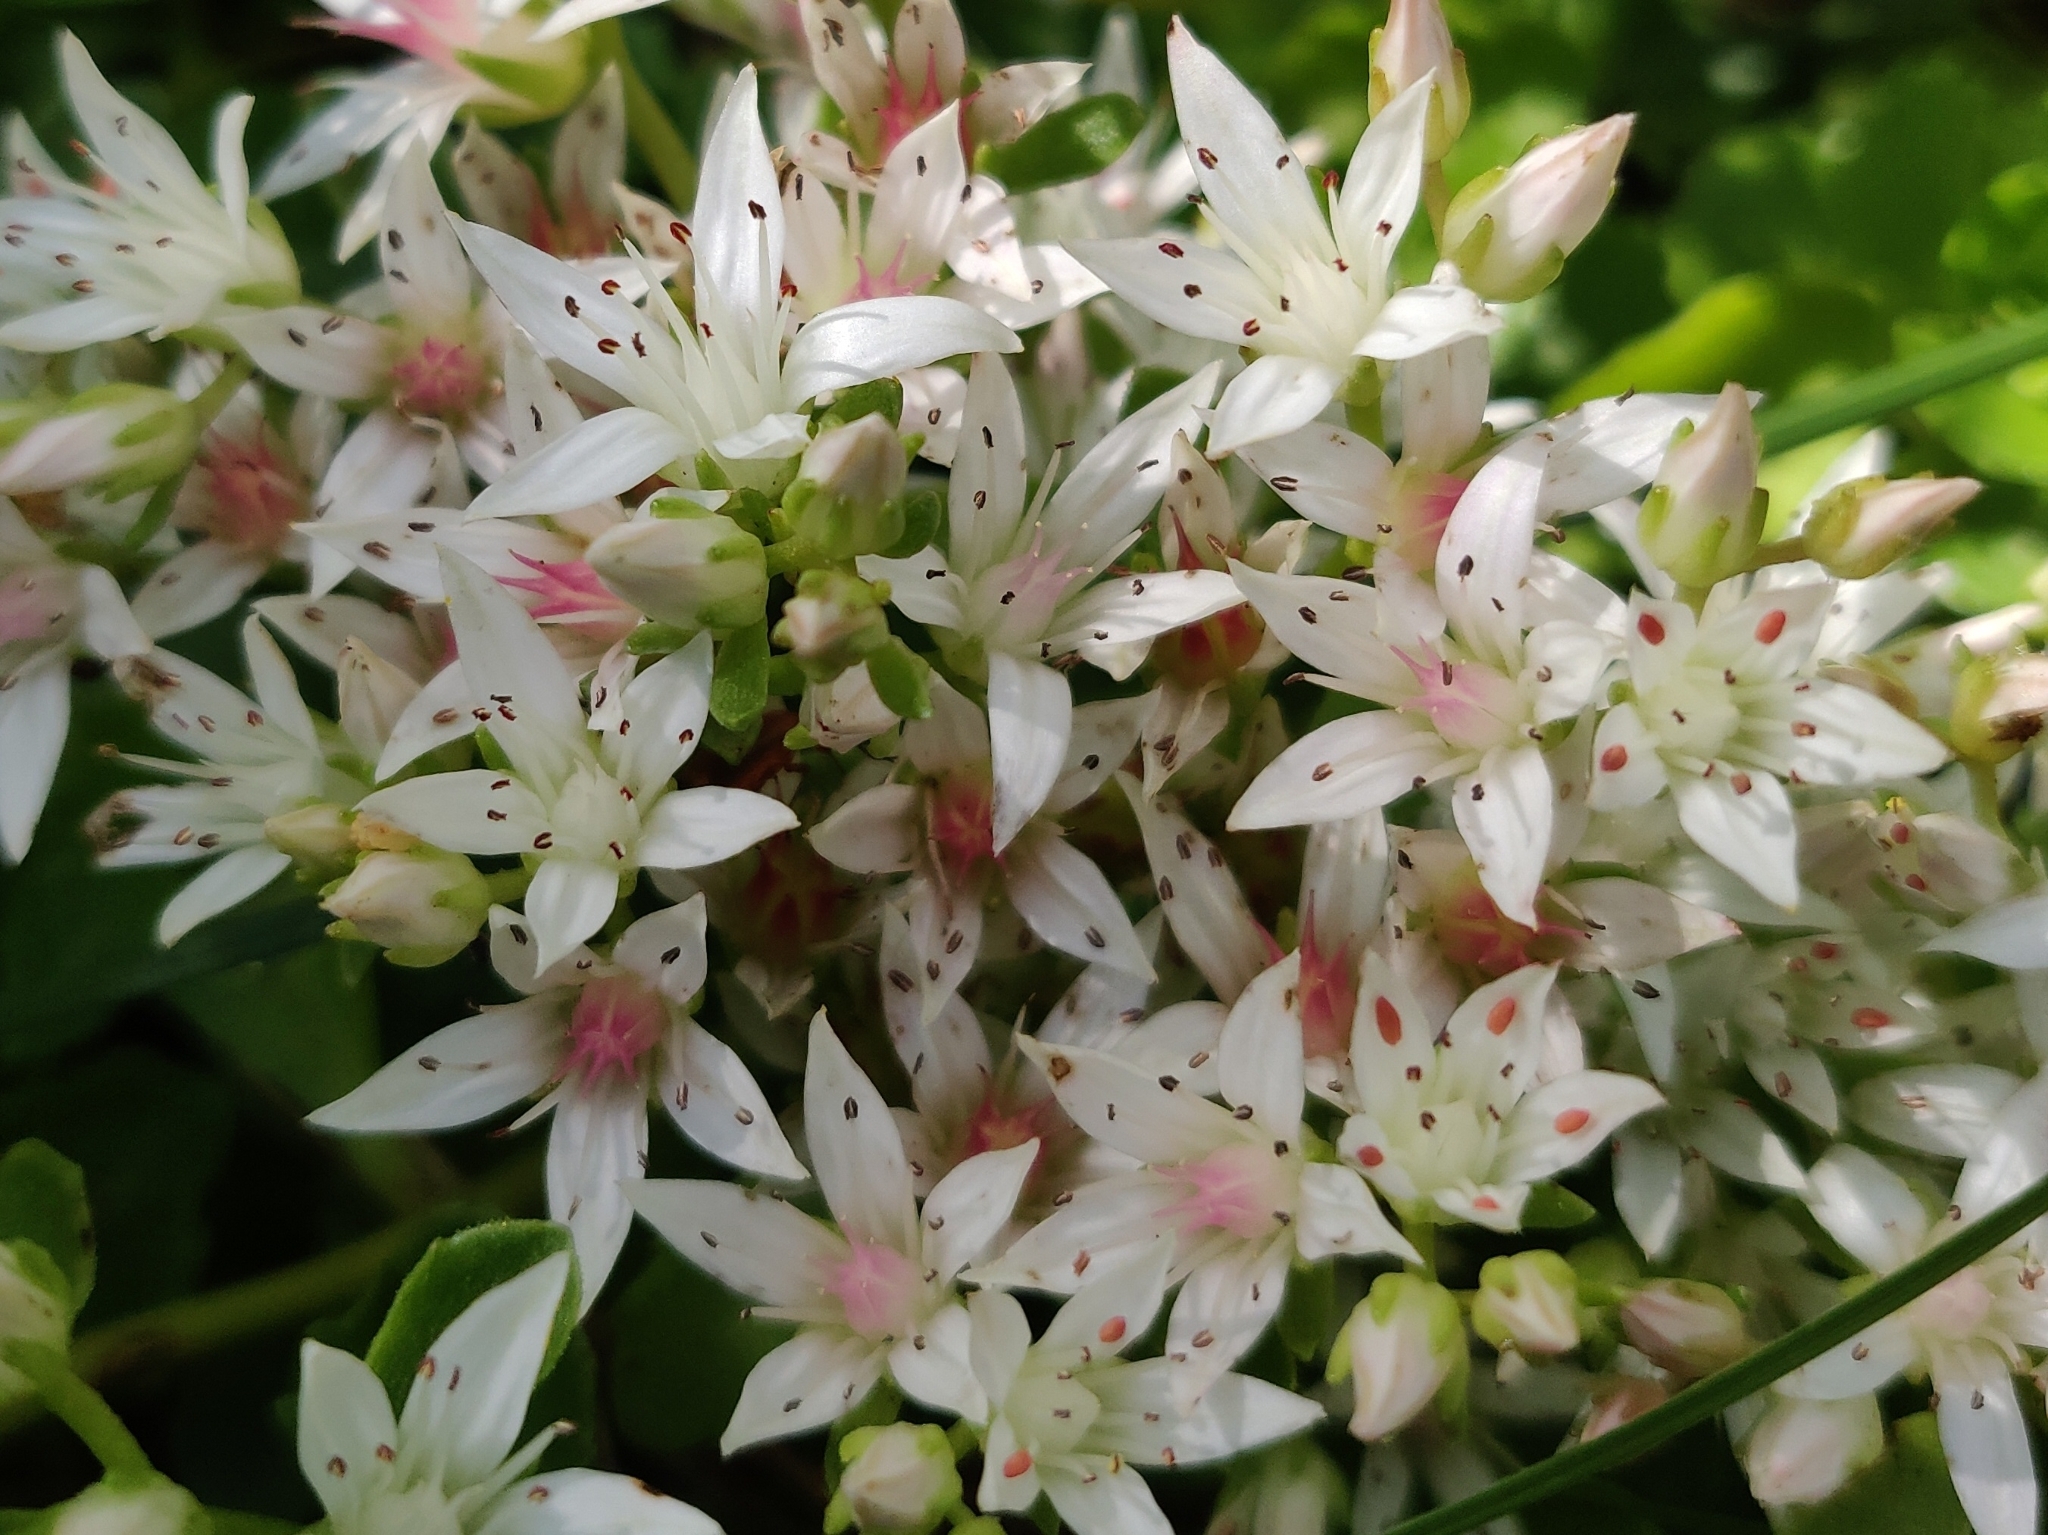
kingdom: Plantae
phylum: Tracheophyta
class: Magnoliopsida
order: Saxifragales
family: Crassulaceae
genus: Phedimus
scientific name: Phedimus spurius
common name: Caucasian stonecrop
